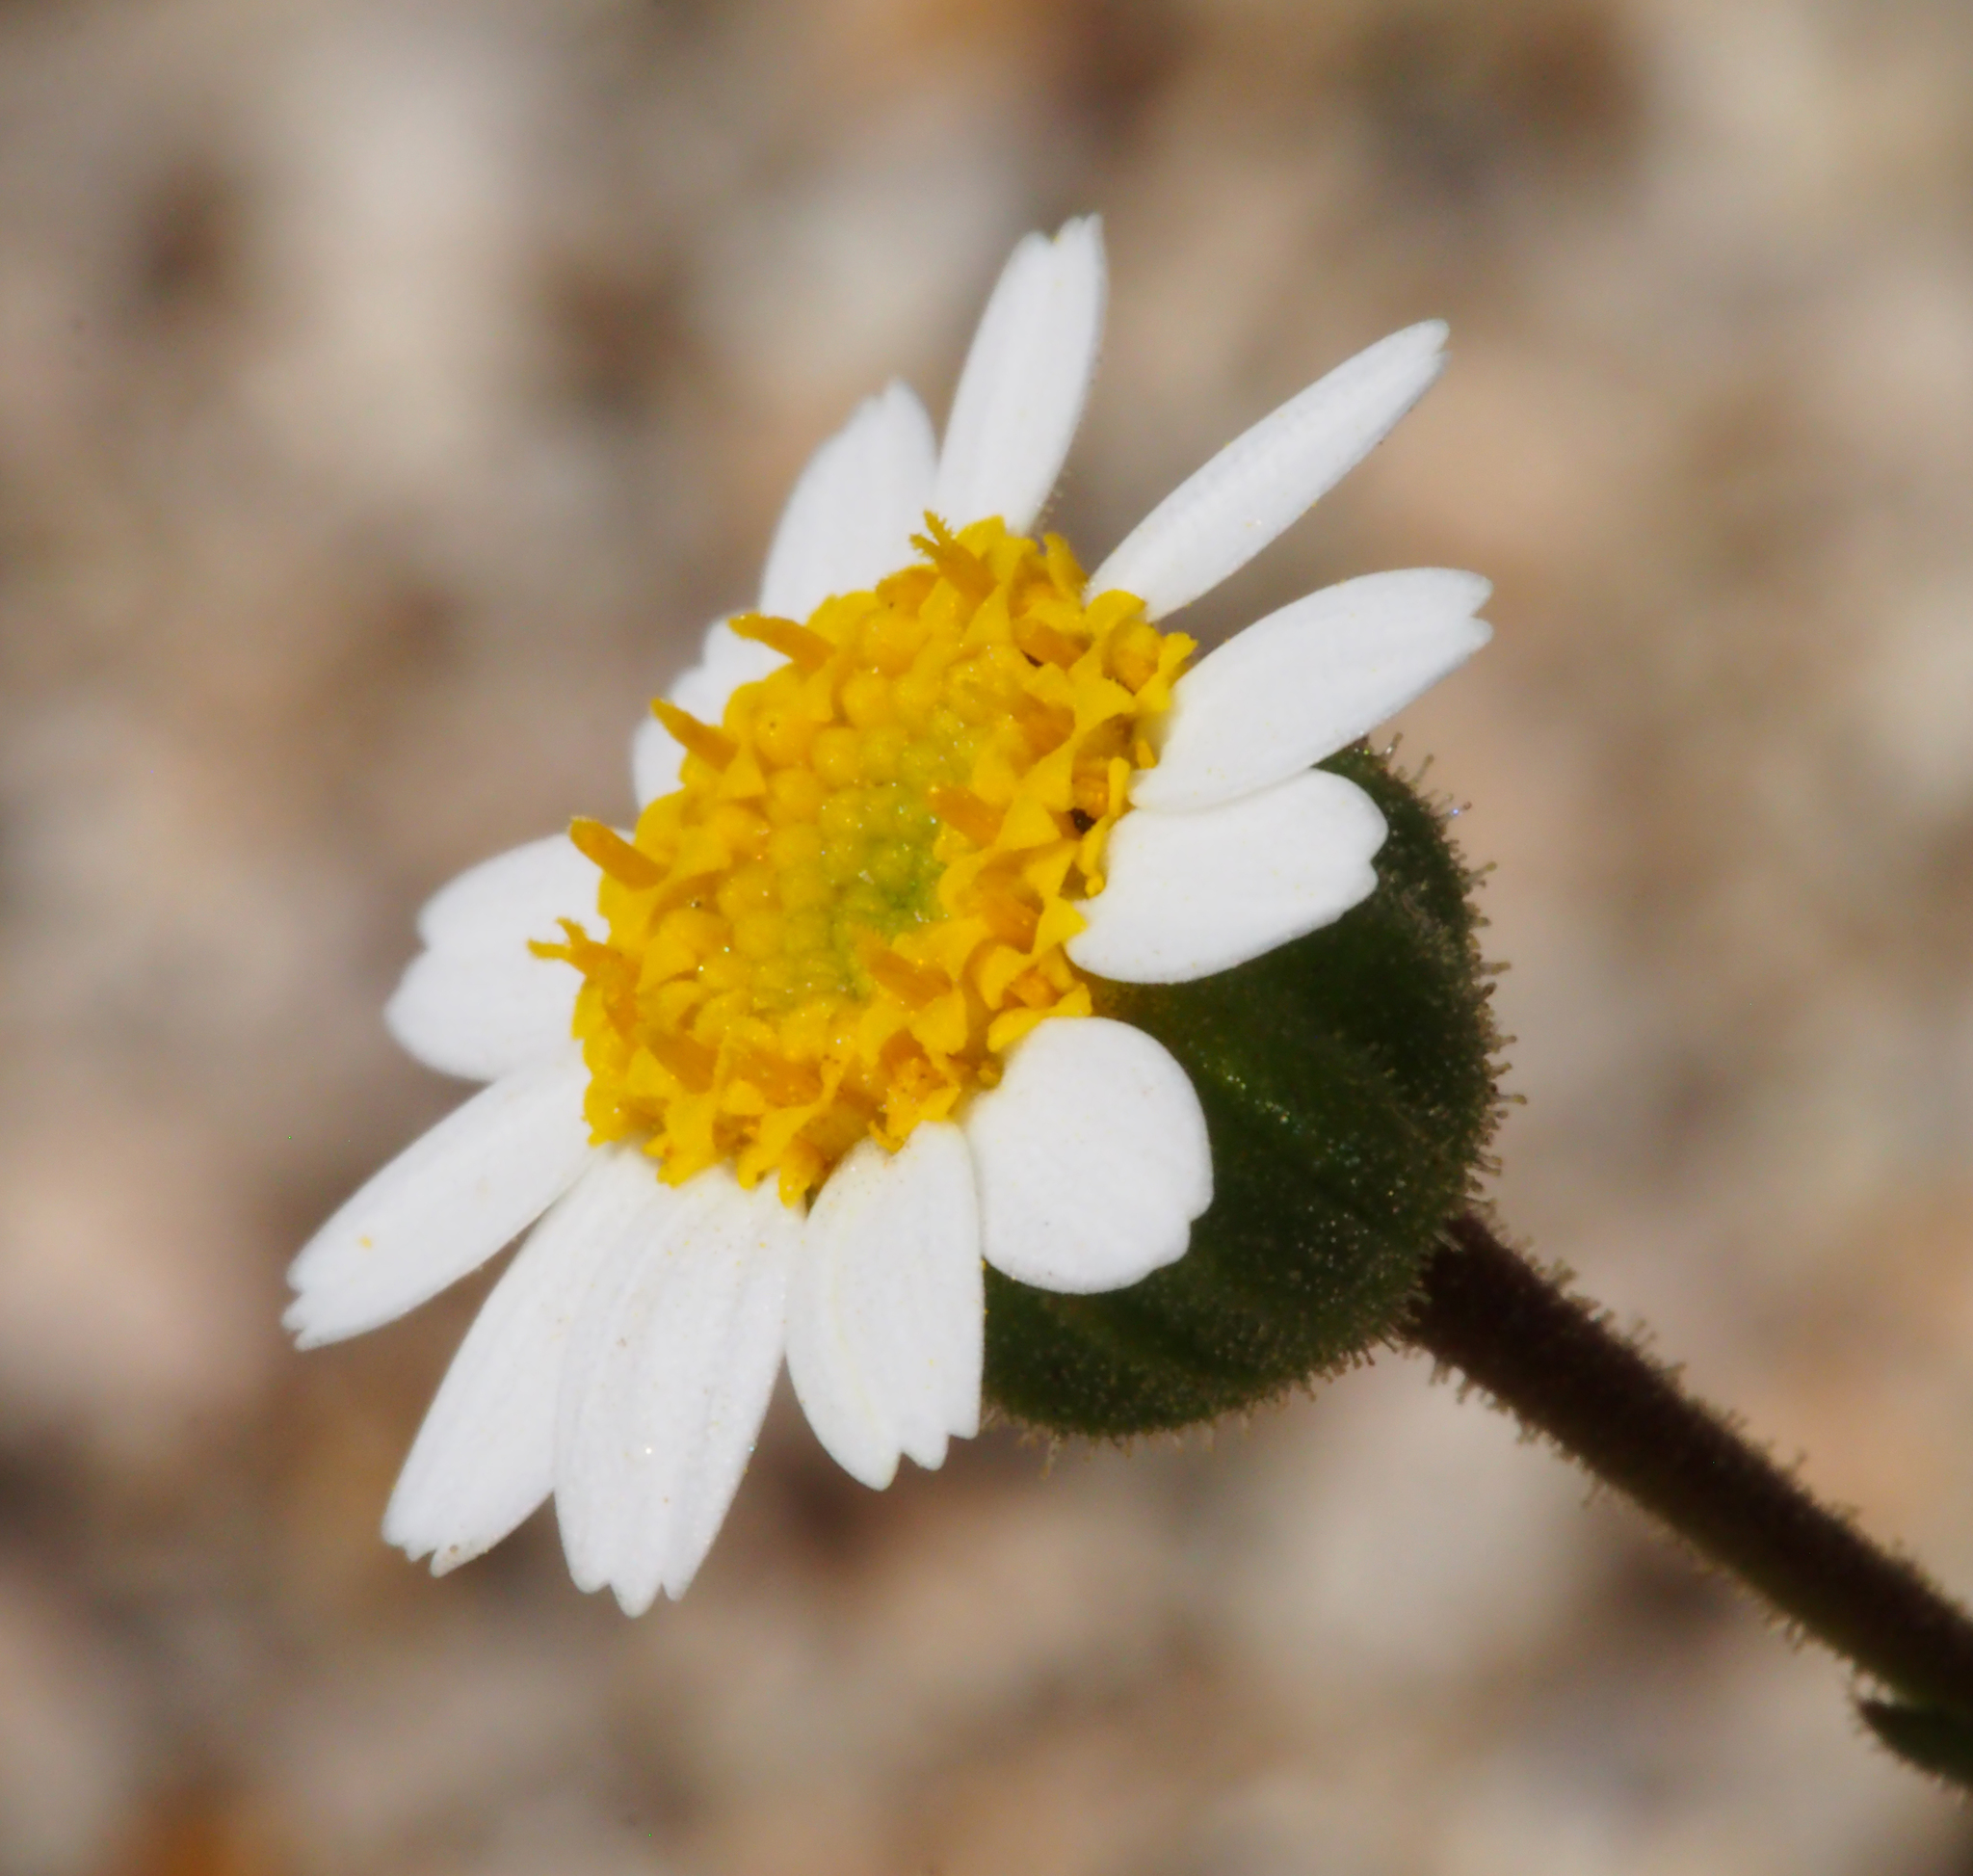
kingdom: Plantae
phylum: Tracheophyta
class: Magnoliopsida
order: Asterales
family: Asteraceae
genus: Laphamia
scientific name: Laphamia emoryi
